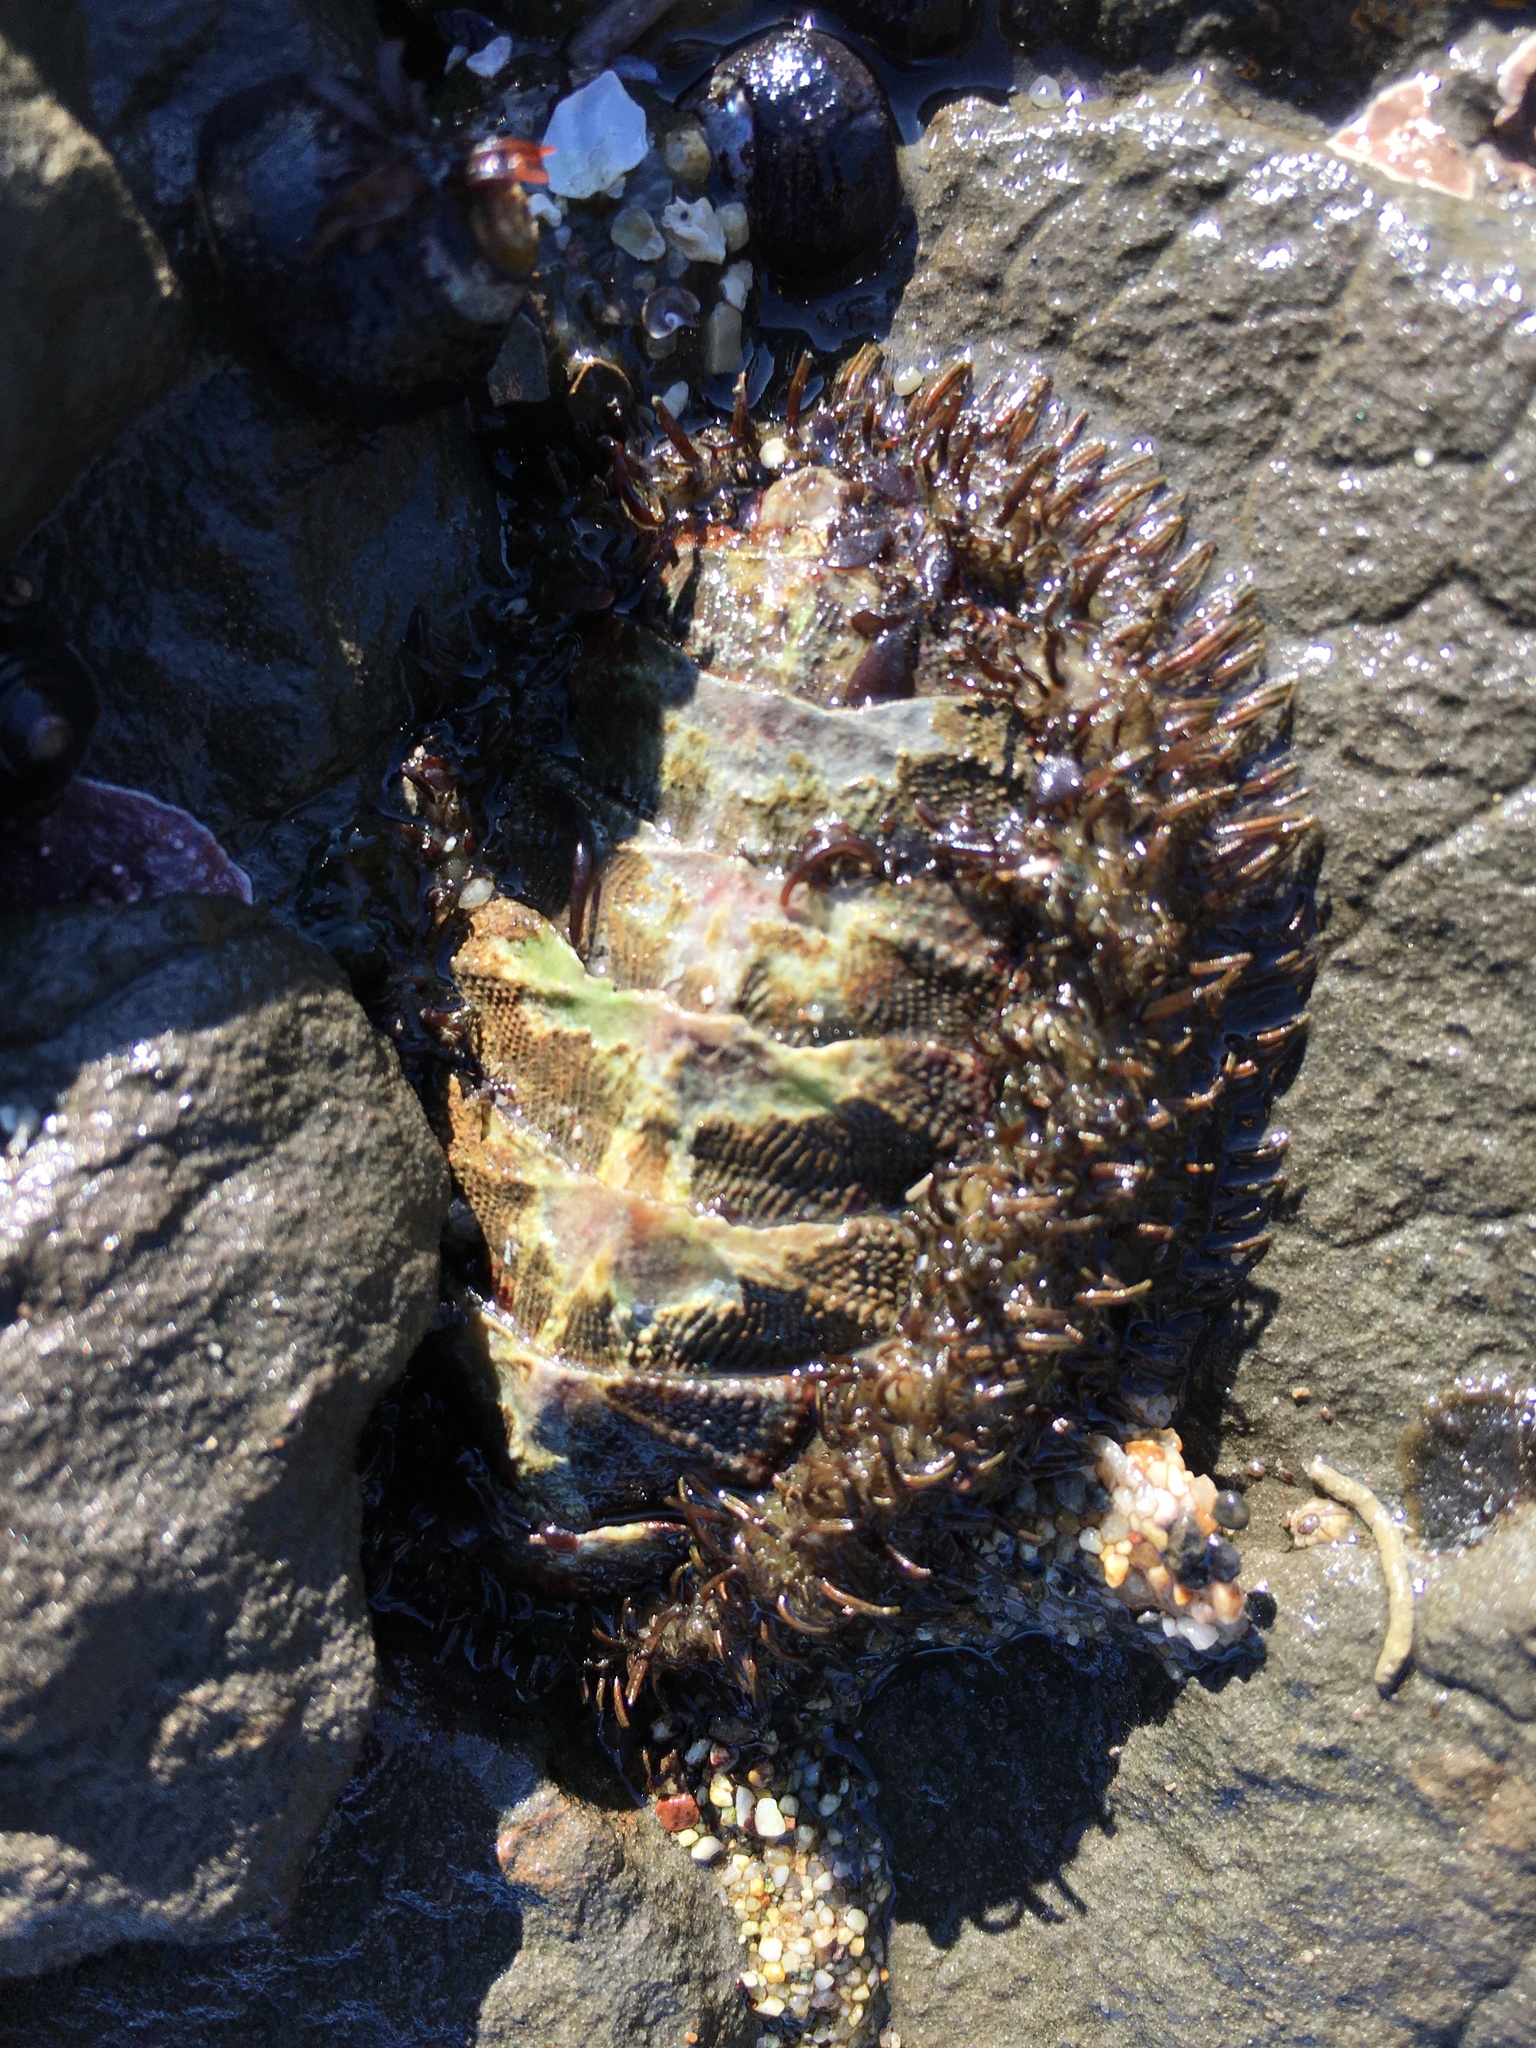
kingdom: Animalia
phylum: Mollusca
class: Polyplacophora
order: Chitonida
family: Mopaliidae
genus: Mopalia
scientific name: Mopalia muscosa
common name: Mossy chiton
